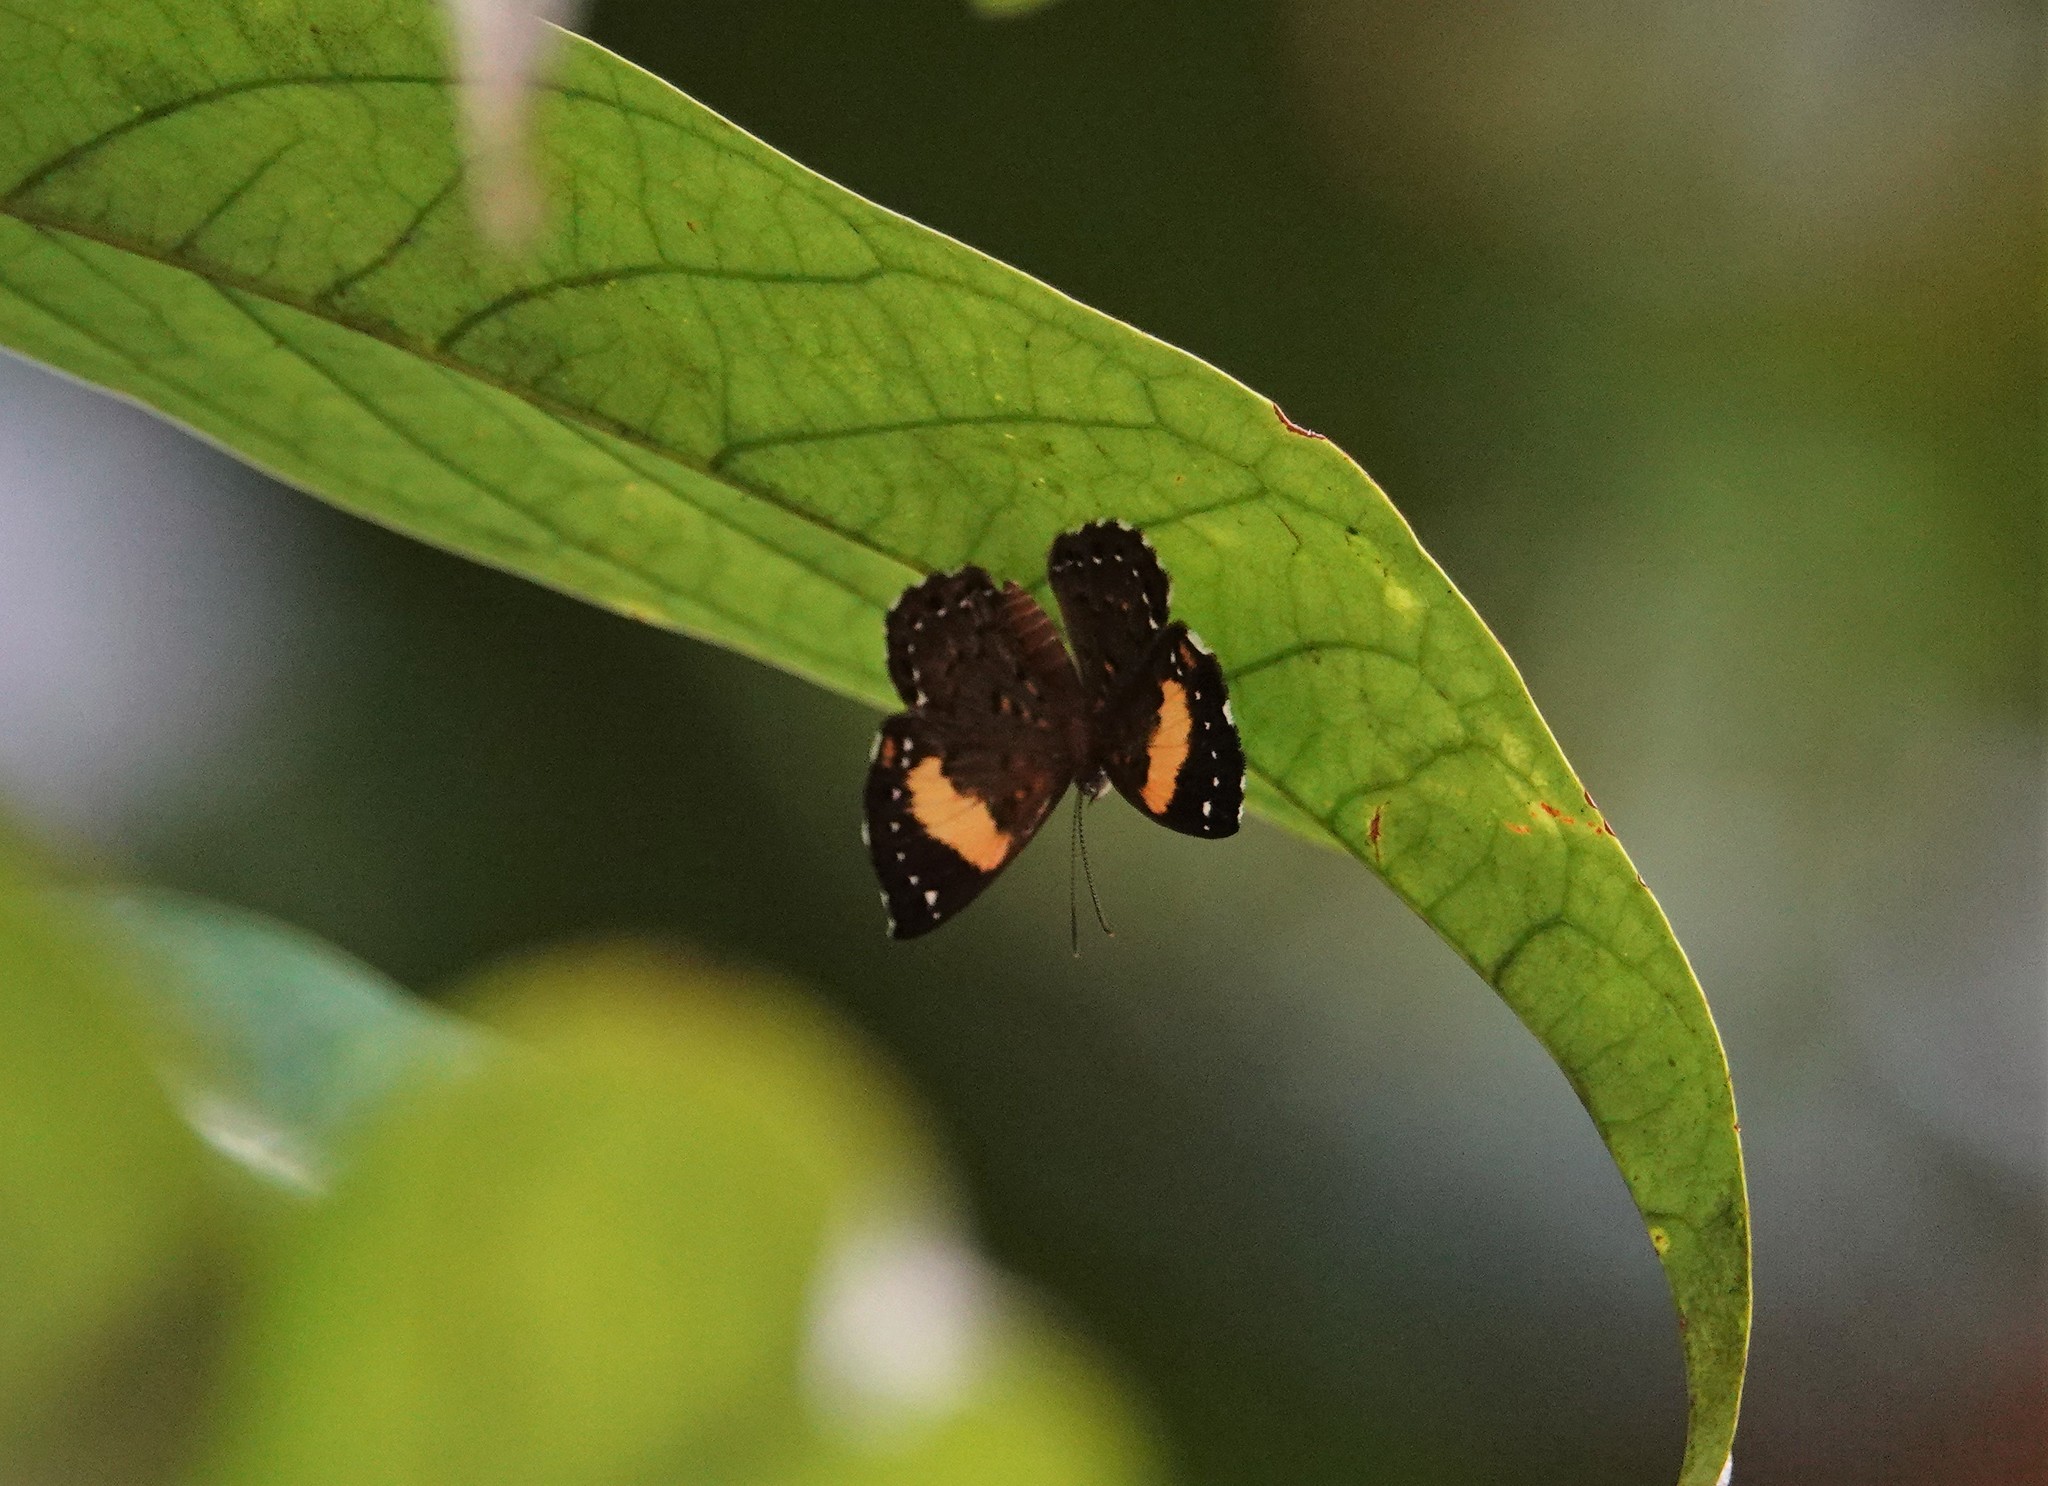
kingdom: Animalia
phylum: Arthropoda
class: Insecta
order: Lepidoptera
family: Riodinidae
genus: Polystichtis
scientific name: Polystichtis emylius
